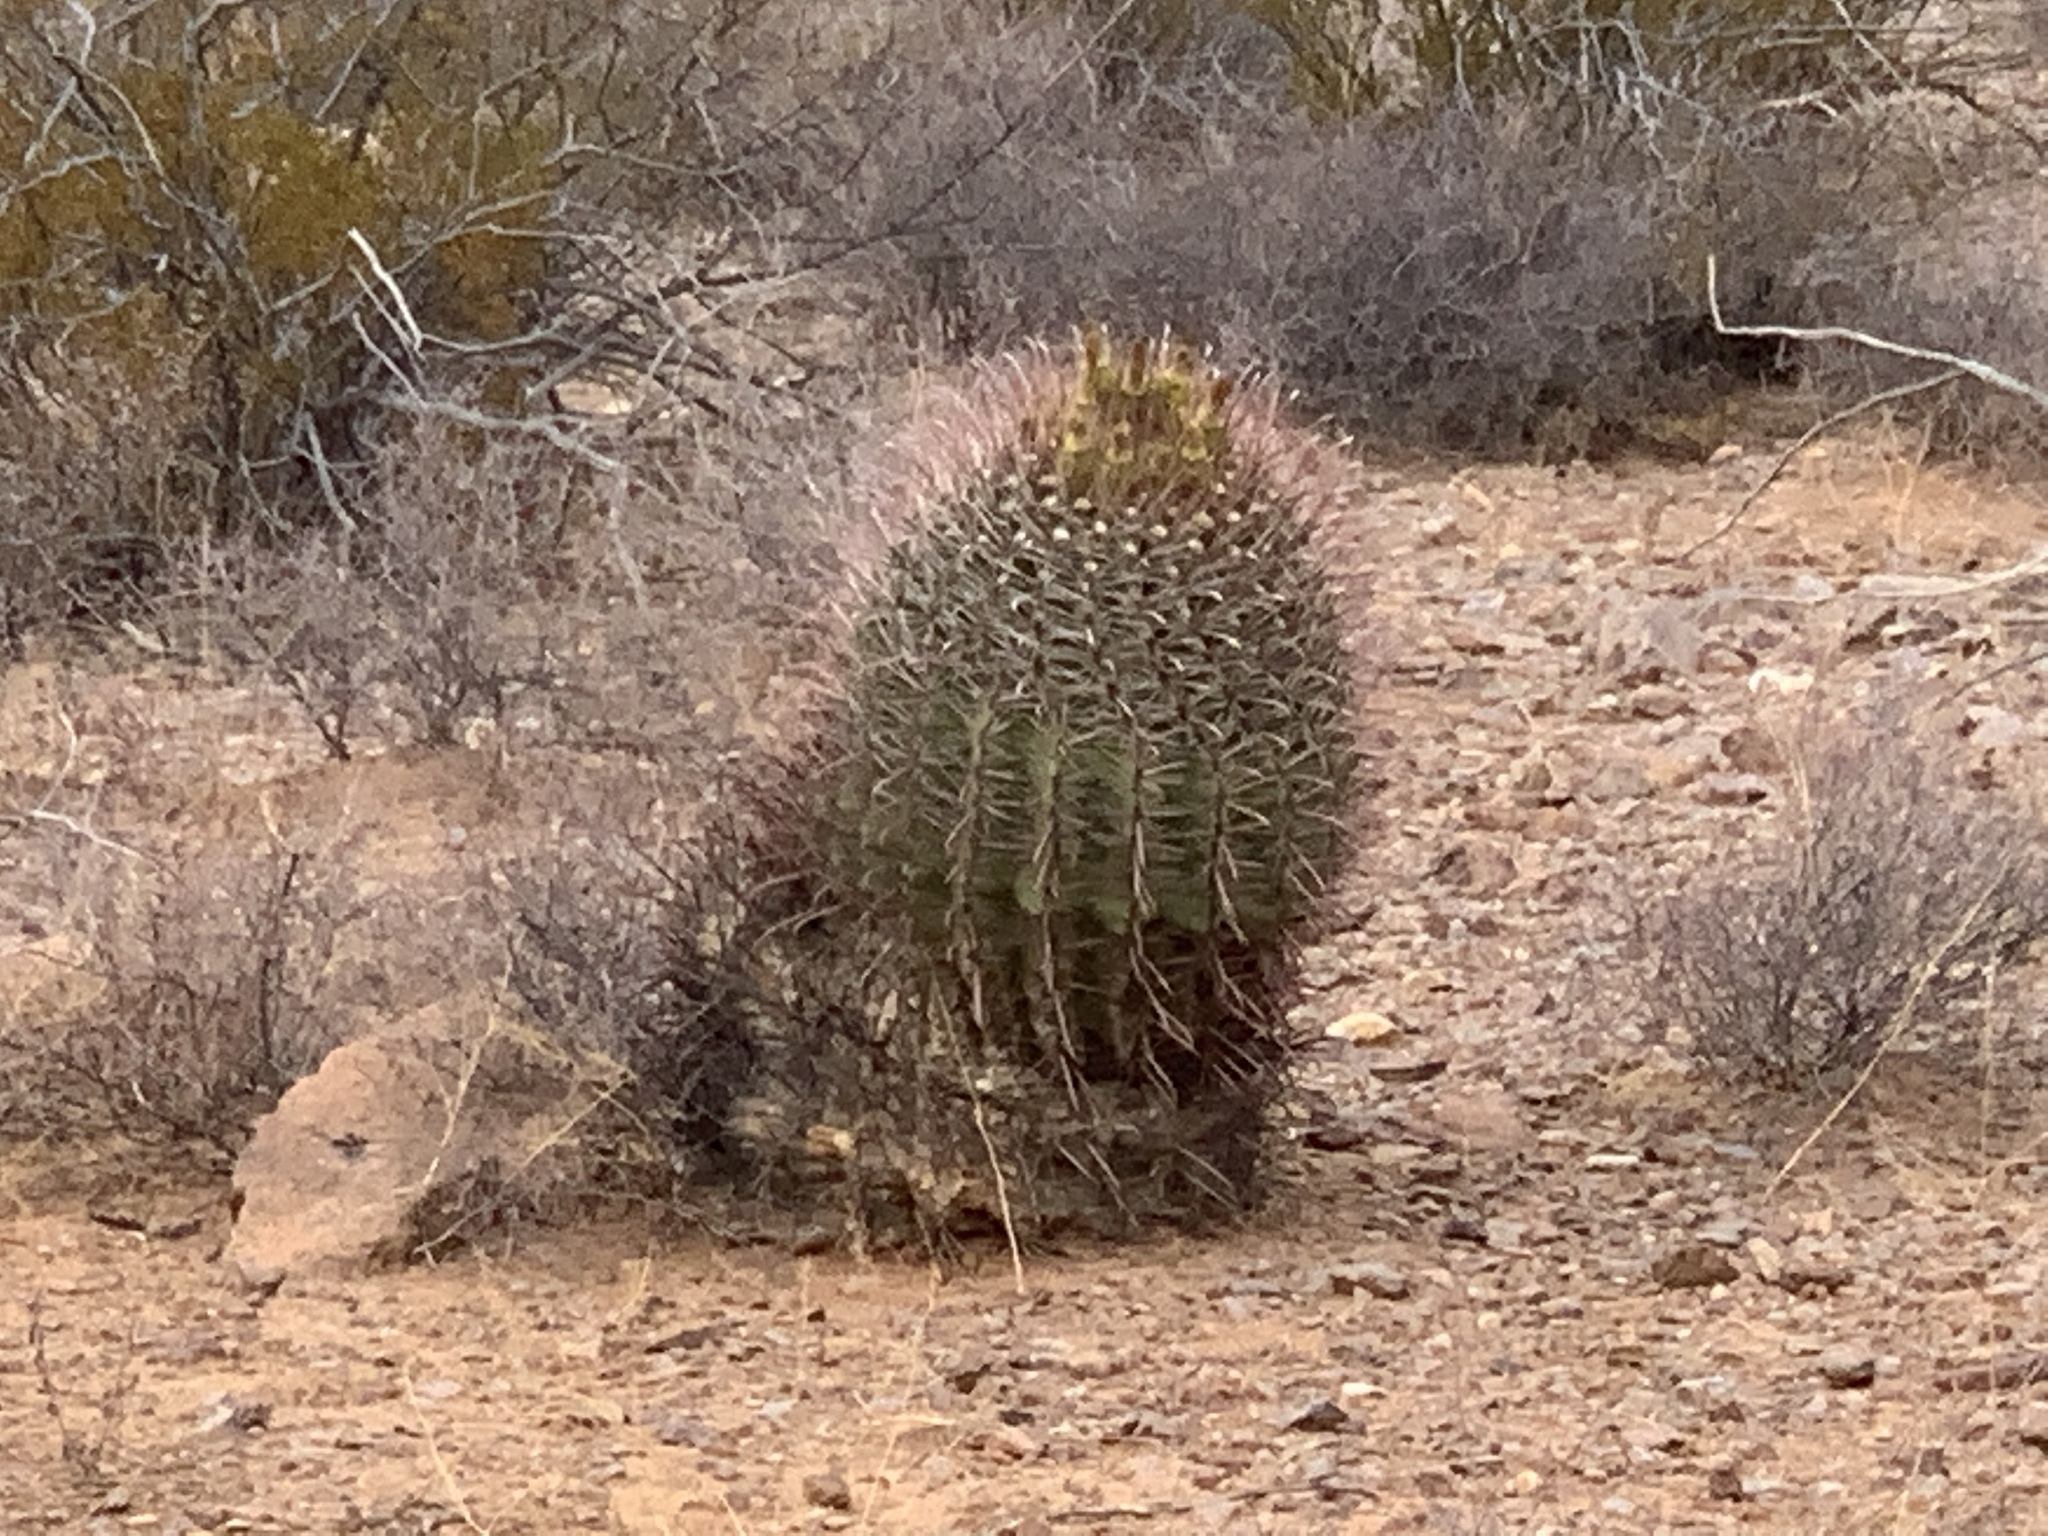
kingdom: Plantae
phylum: Tracheophyta
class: Magnoliopsida
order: Caryophyllales
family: Cactaceae
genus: Ferocactus
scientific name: Ferocactus wislizeni
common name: Candy barrel cactus
